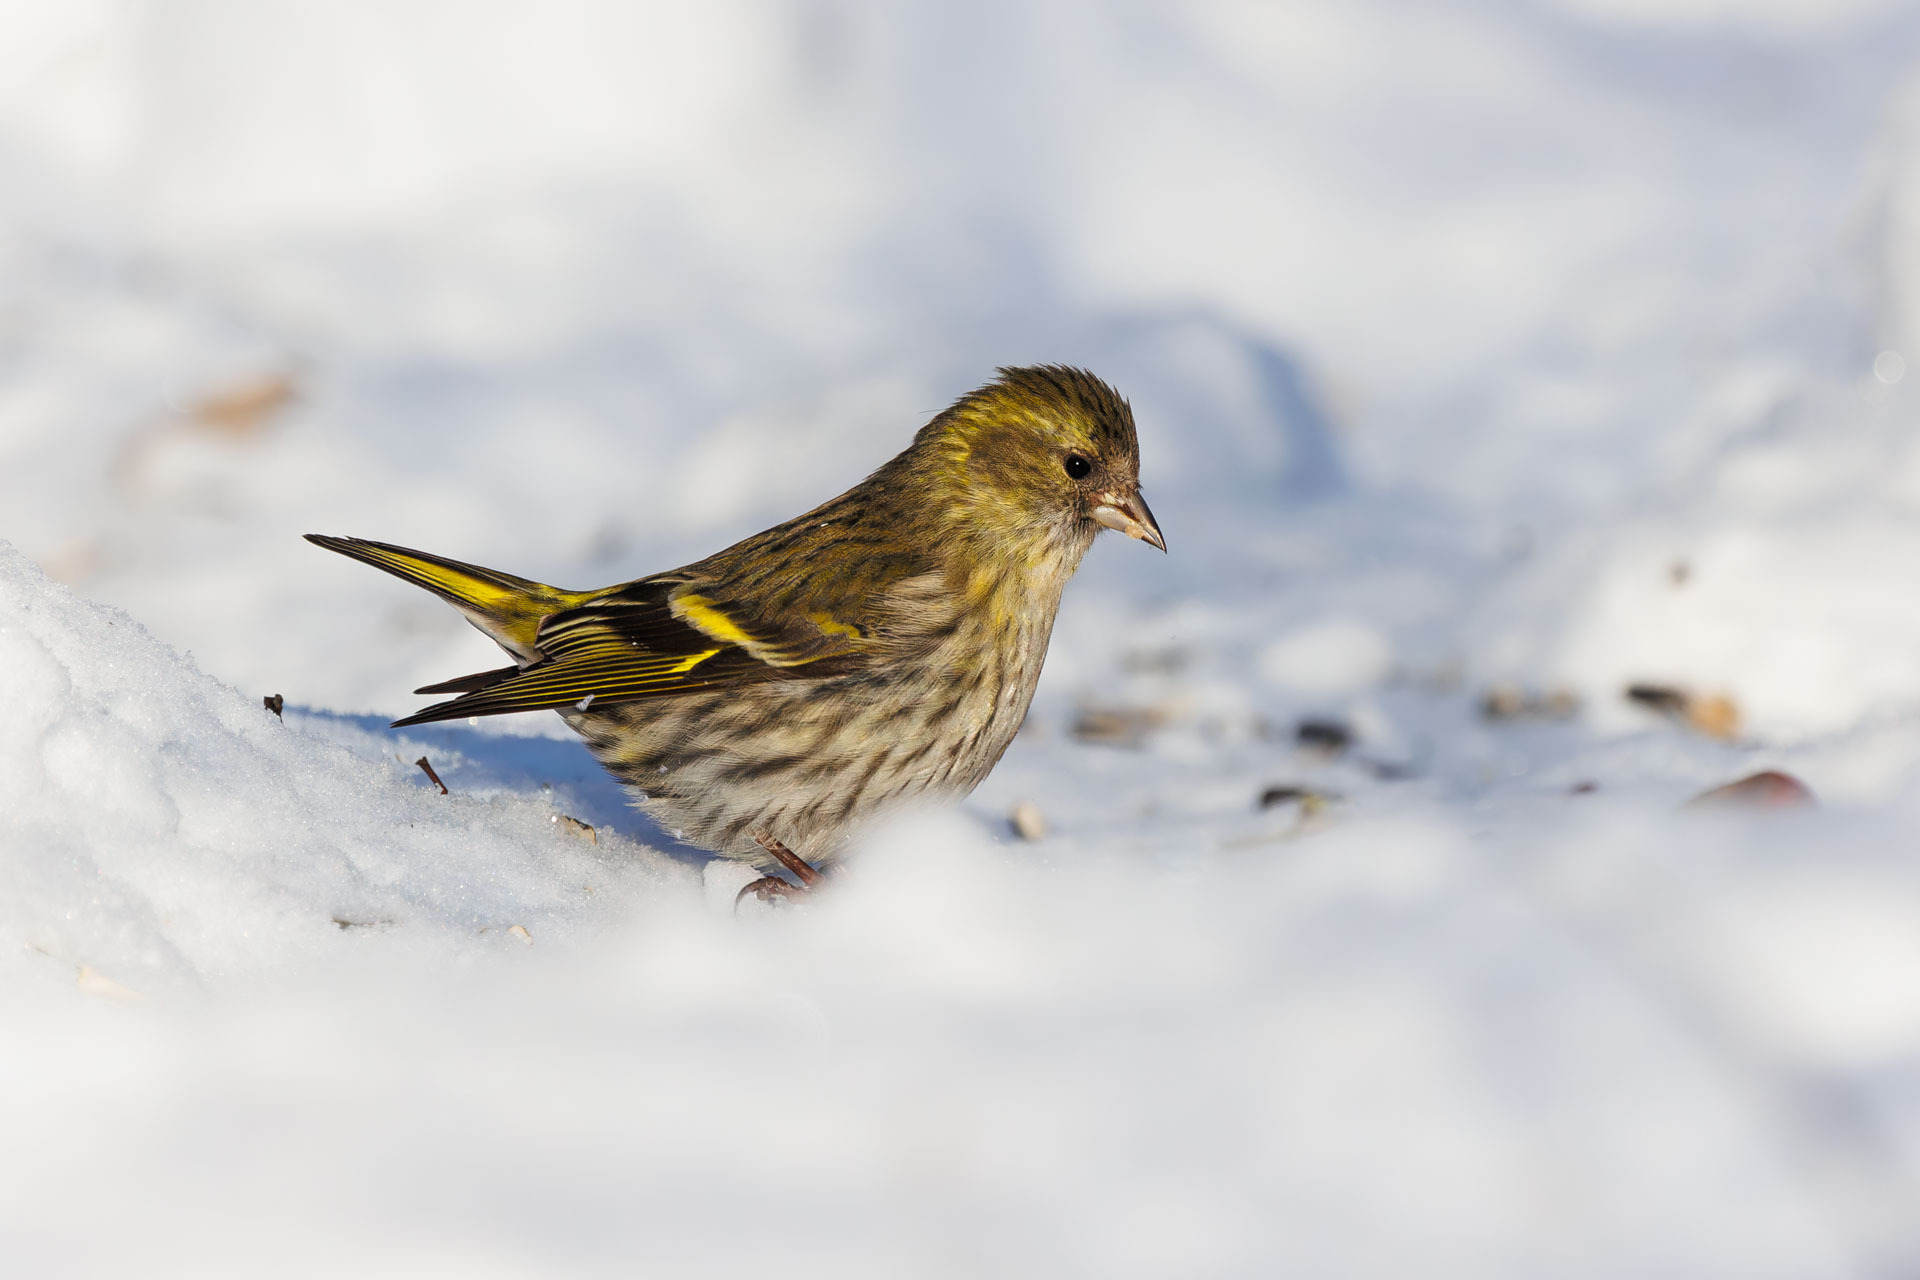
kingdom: Animalia
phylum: Chordata
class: Aves
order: Passeriformes
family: Fringillidae
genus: Spinus
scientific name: Spinus spinus
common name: Eurasian siskin
